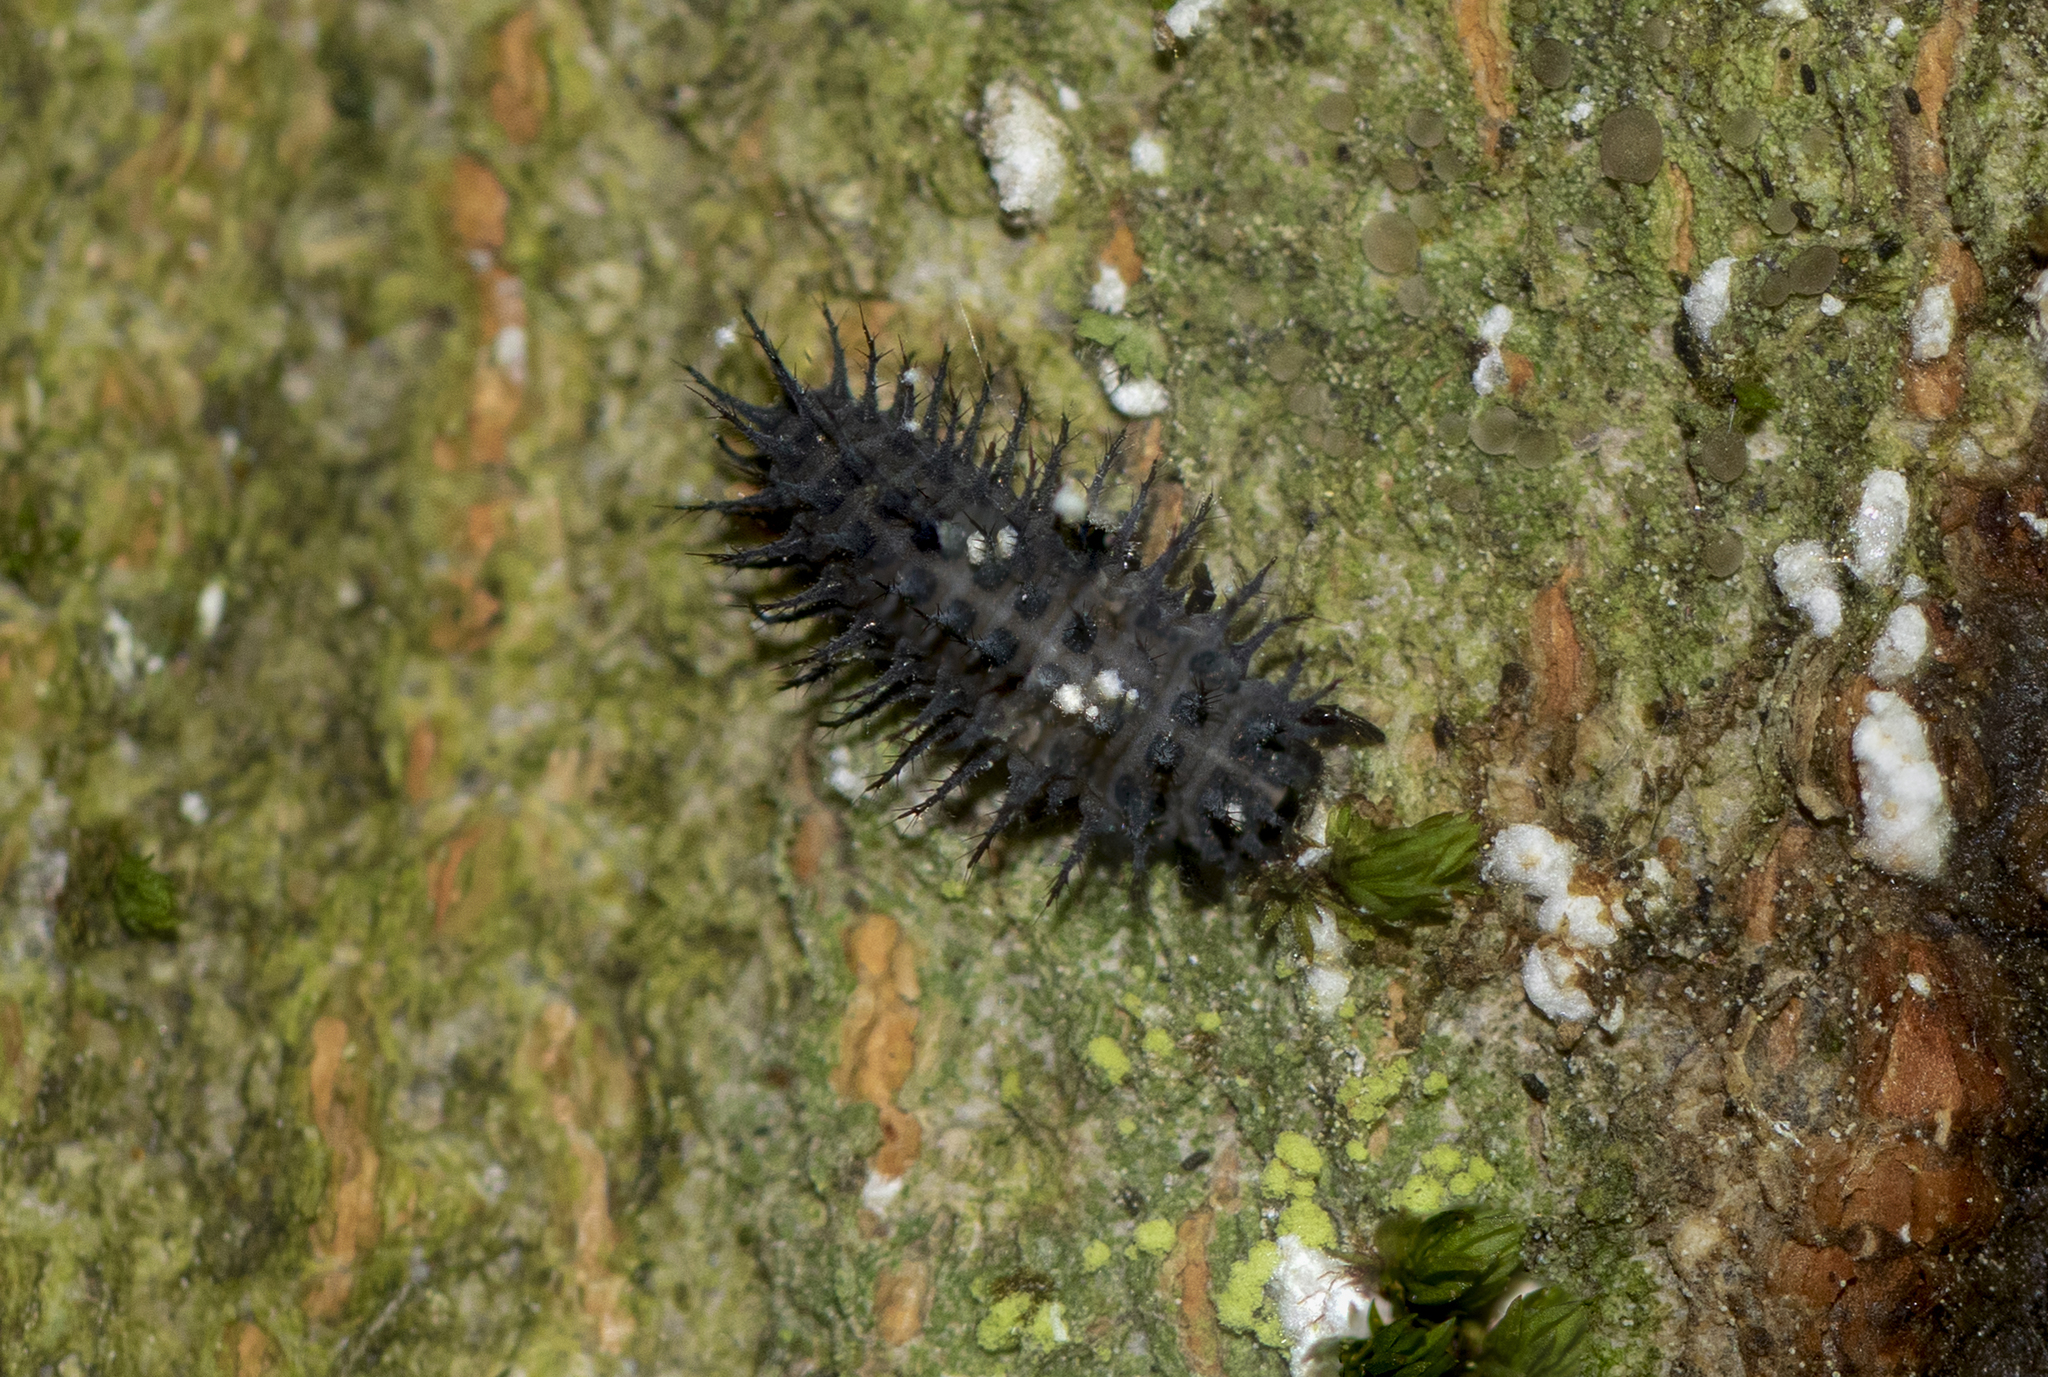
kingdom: Animalia
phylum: Arthropoda
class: Insecta
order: Coleoptera
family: Coccinellidae
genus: Chilocorus
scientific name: Chilocorus stigma
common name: Twicestabbed lady beetle
